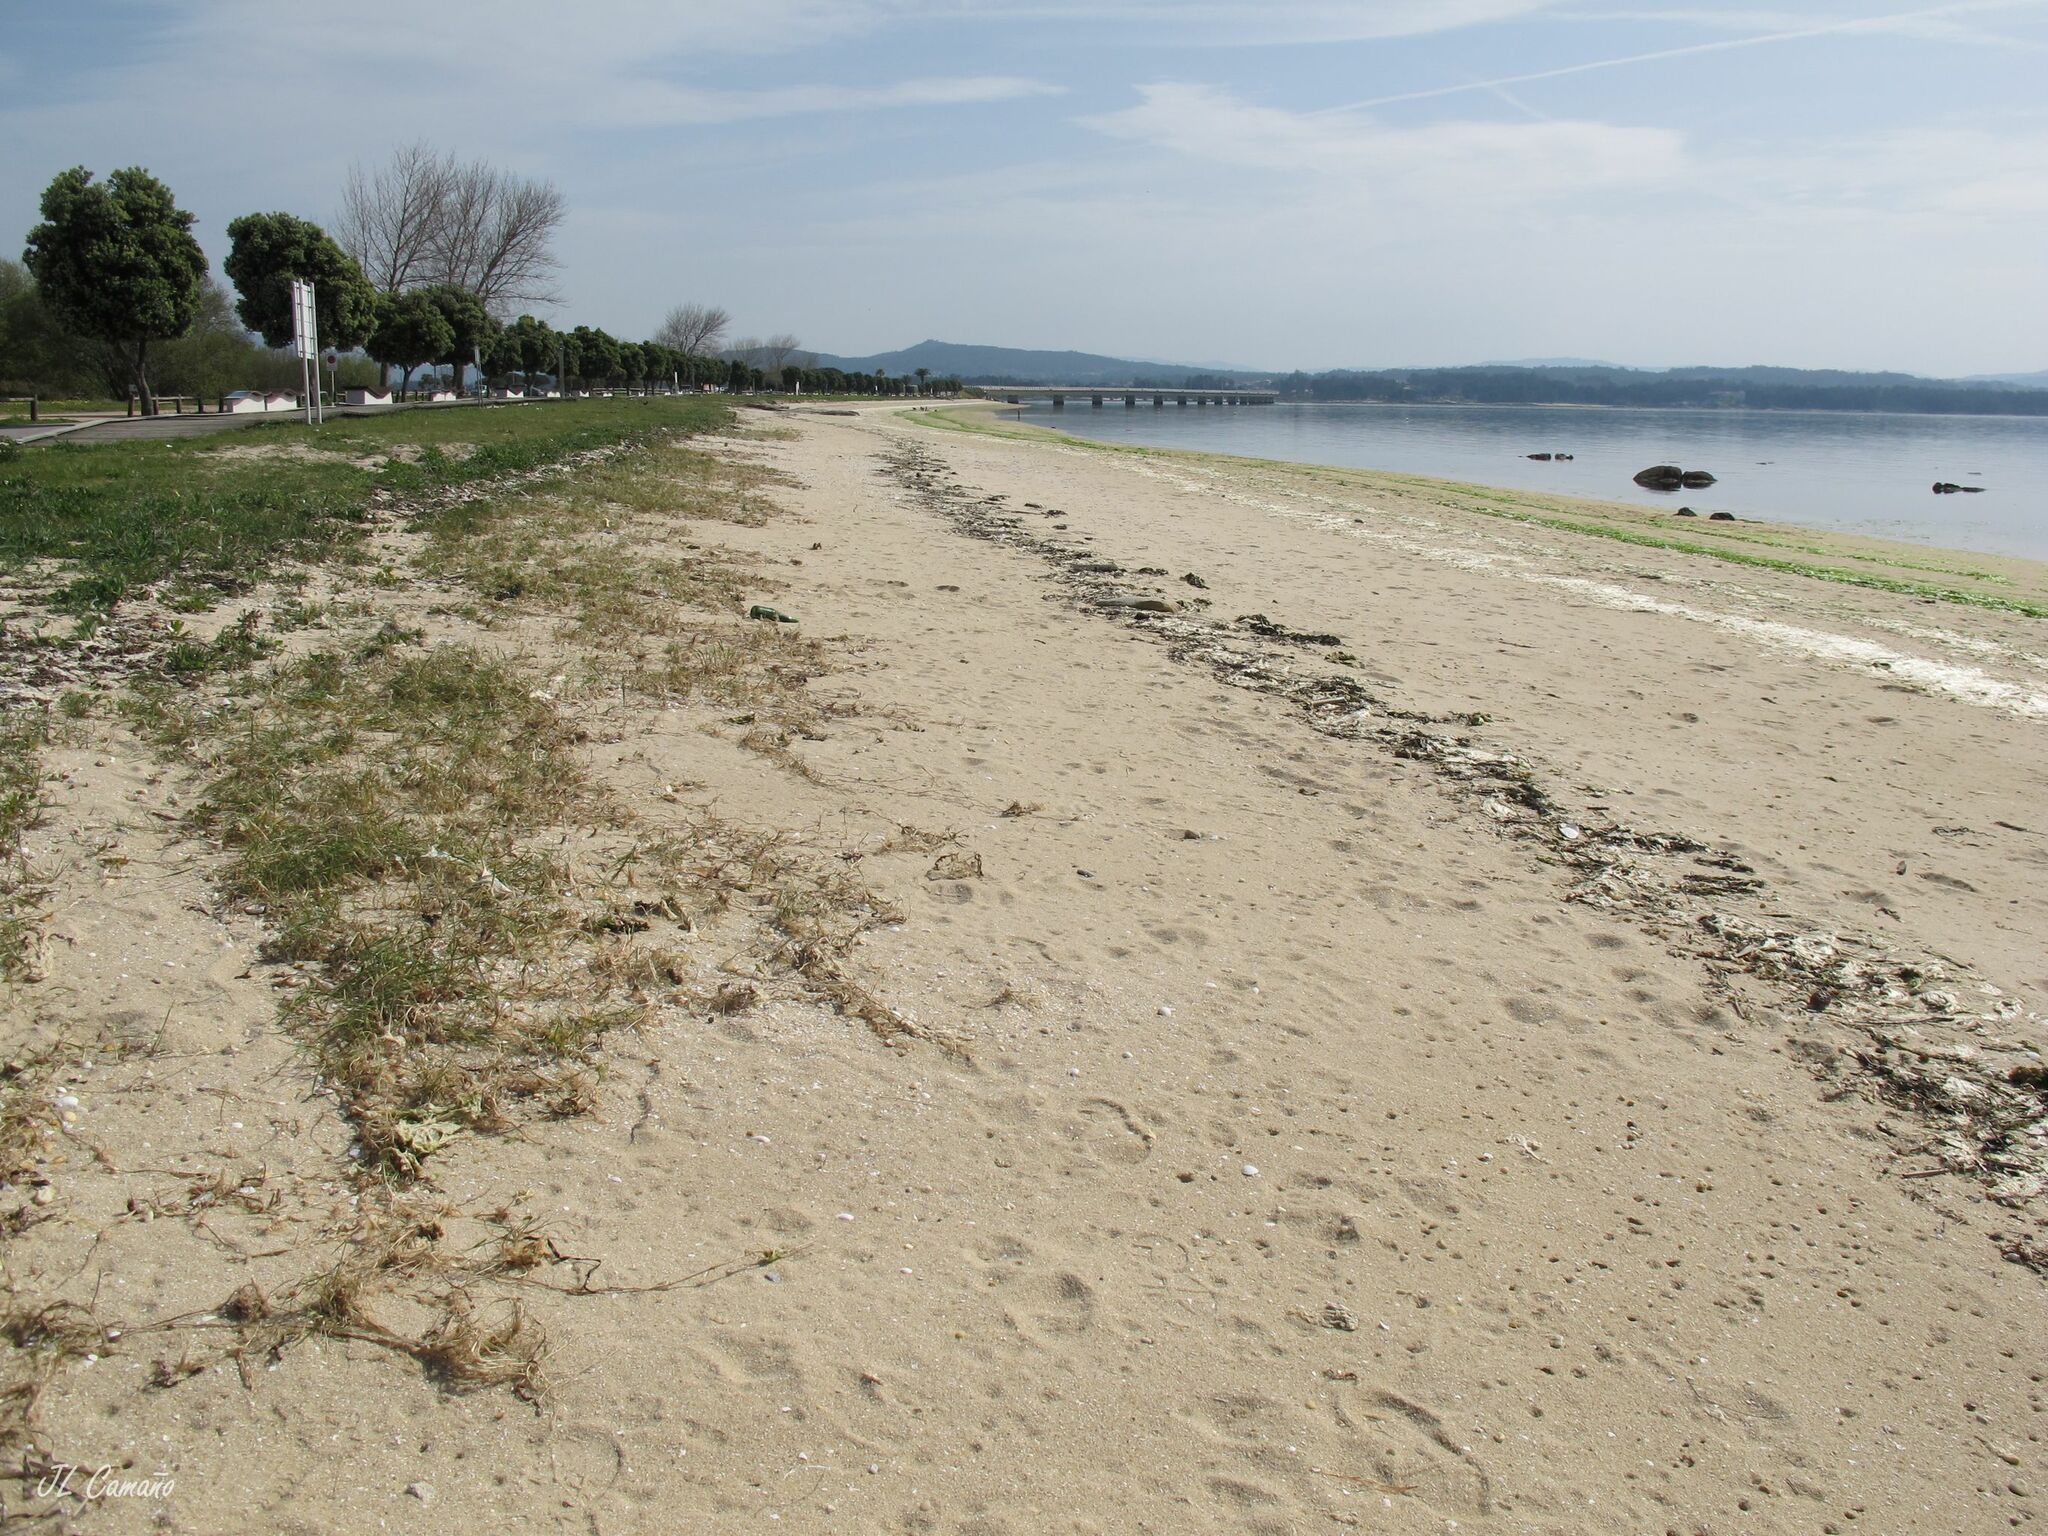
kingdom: Plantae
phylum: Tracheophyta
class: Magnoliopsida
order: Oxalidales
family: Oxalidaceae
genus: Oxalis
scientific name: Oxalis purpurea
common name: Purple woodsorrel
